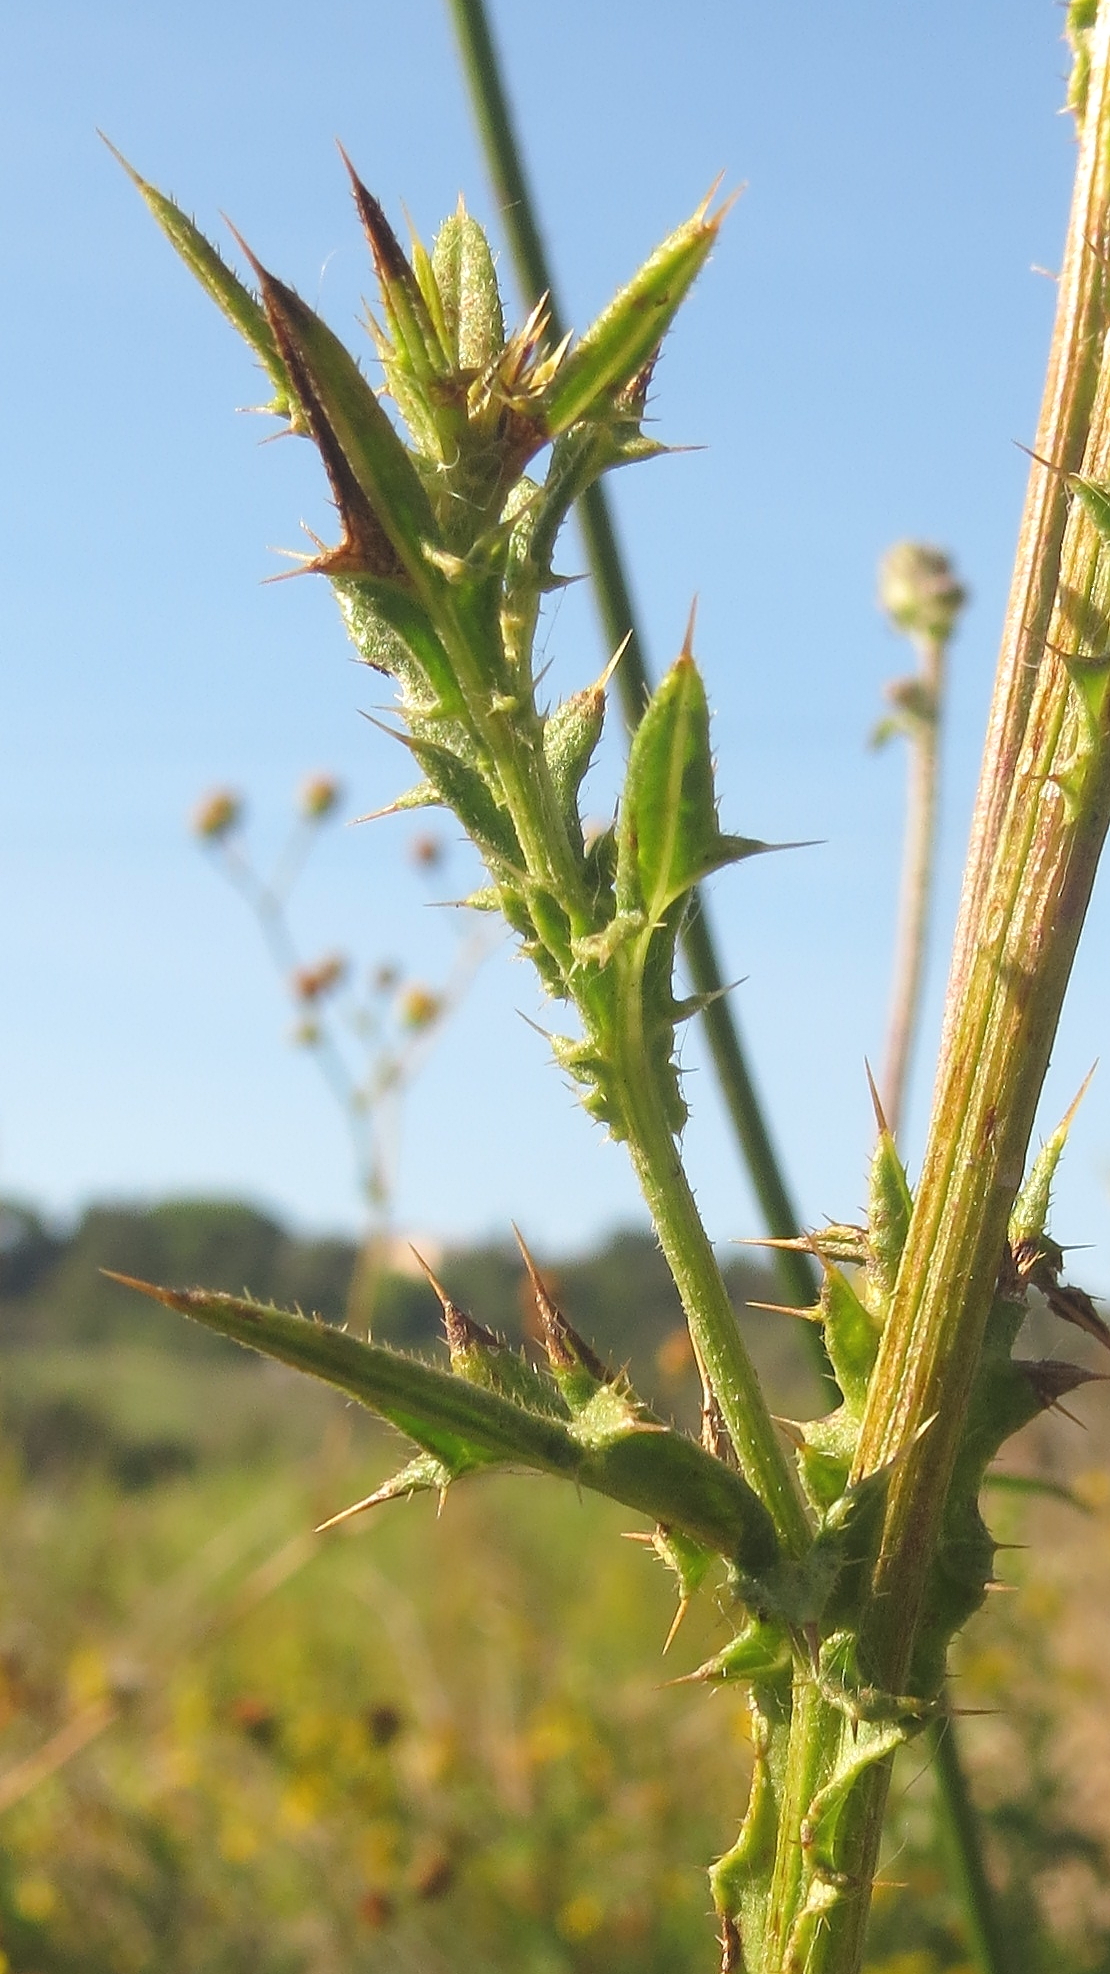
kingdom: Plantae
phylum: Tracheophyta
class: Magnoliopsida
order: Asterales
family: Asteraceae
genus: Cirsium
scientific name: Cirsium vulgare
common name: Bull thistle
